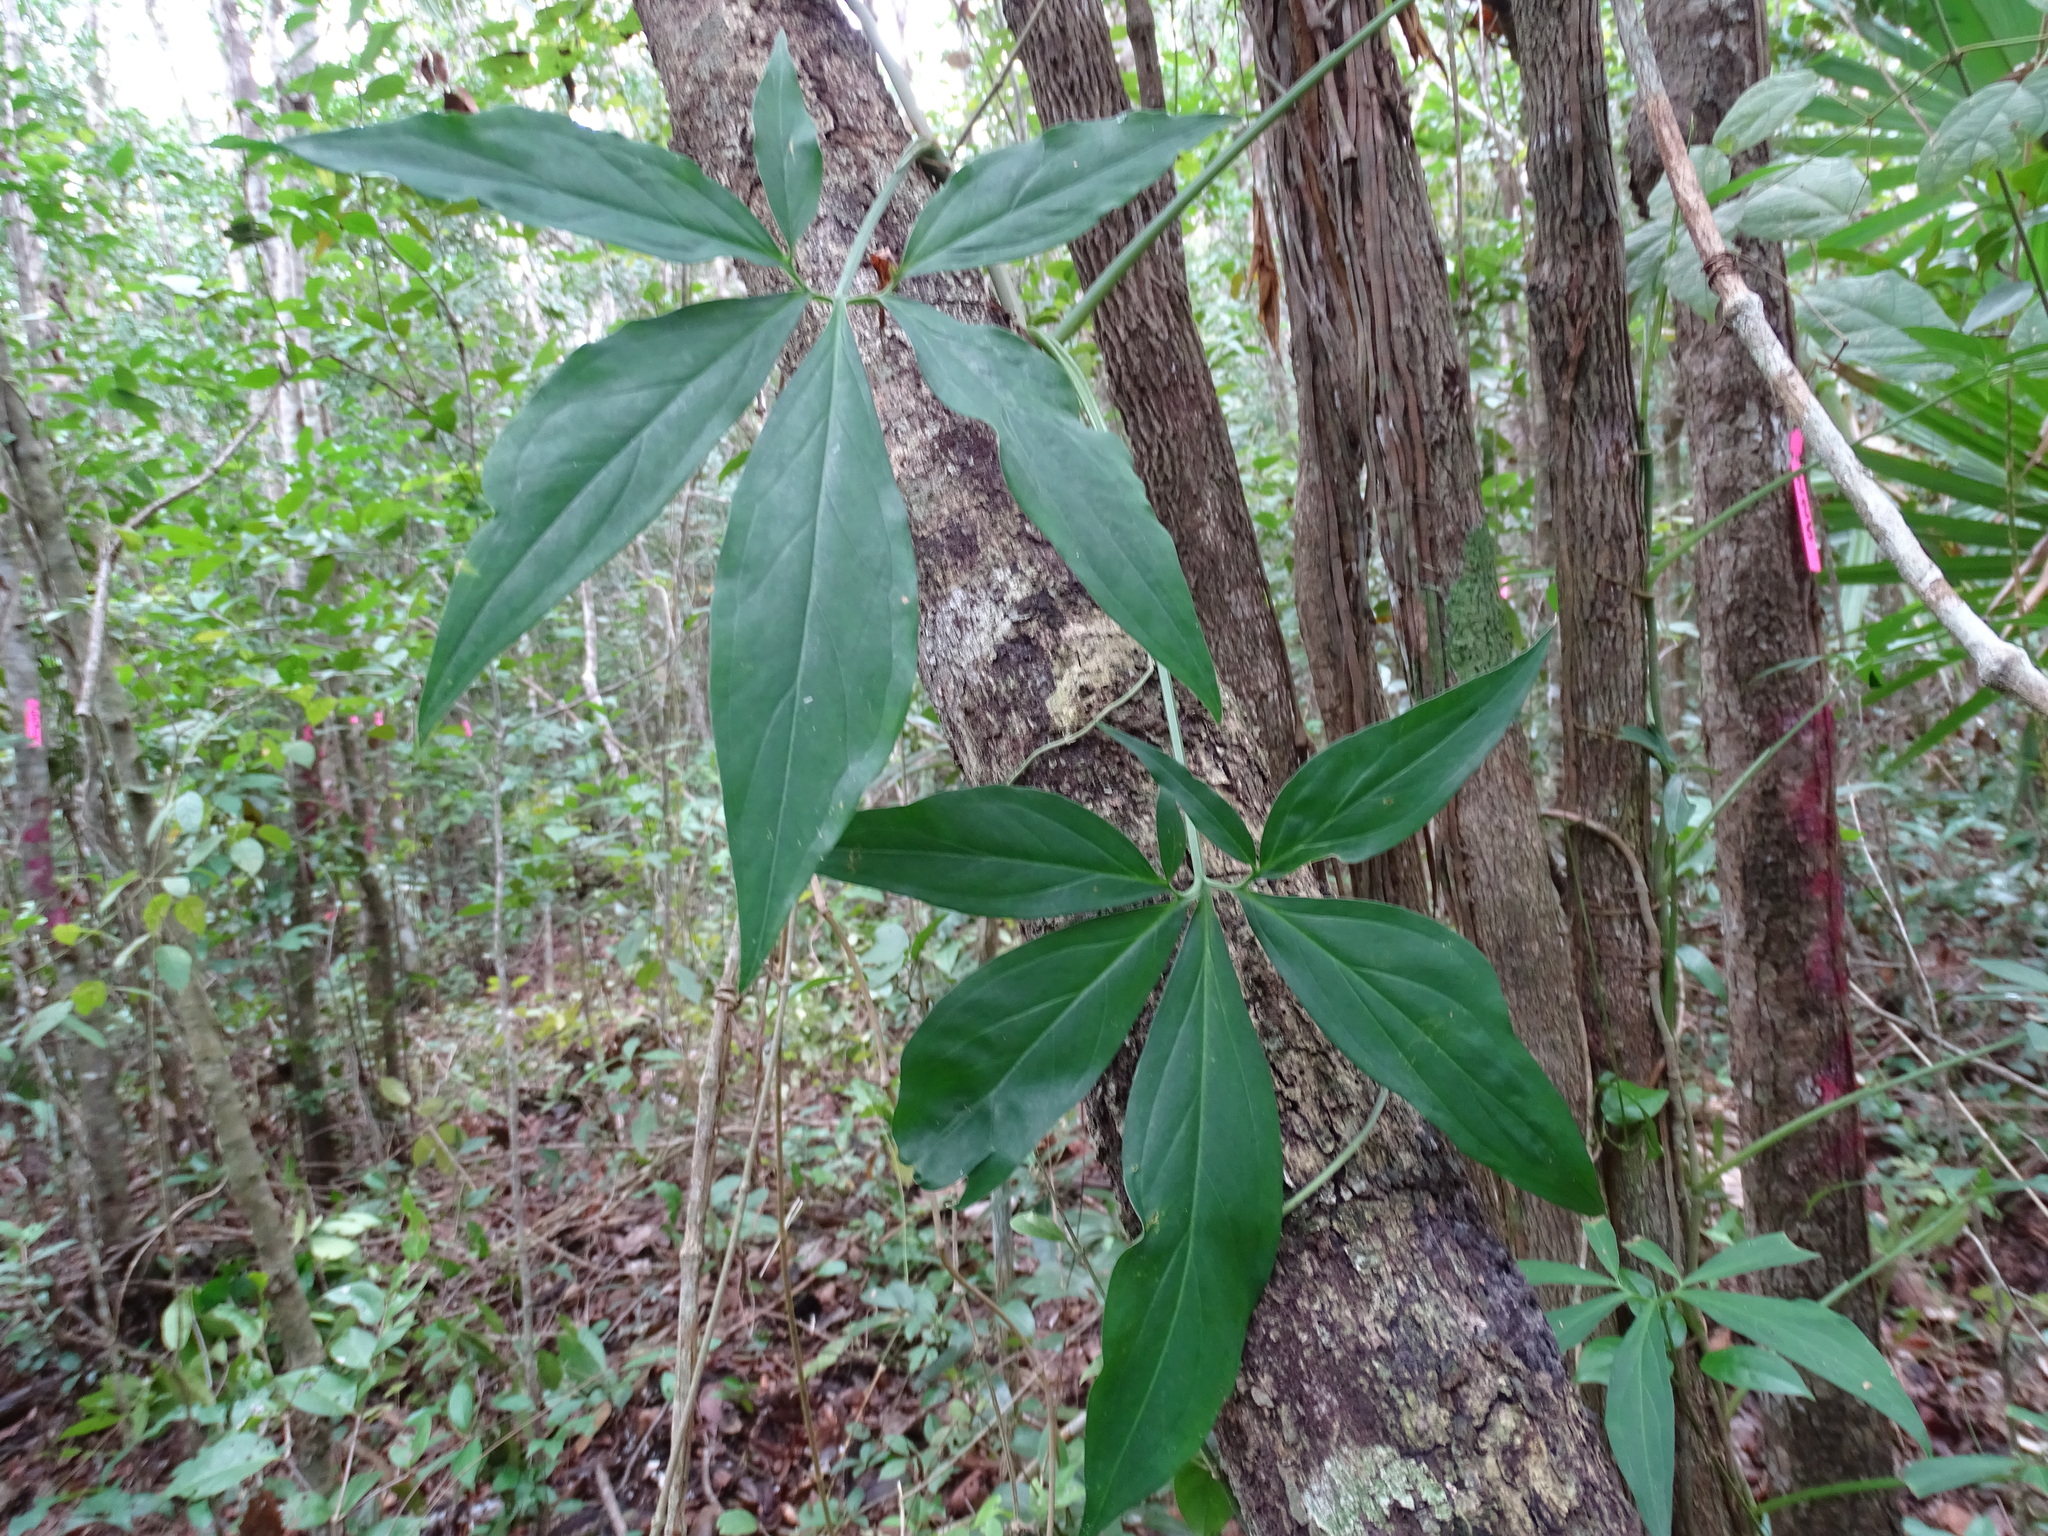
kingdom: Plantae
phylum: Tracheophyta
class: Liliopsida
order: Alismatales
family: Araceae
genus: Syngonium
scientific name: Syngonium angustatum
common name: Fivefingers
